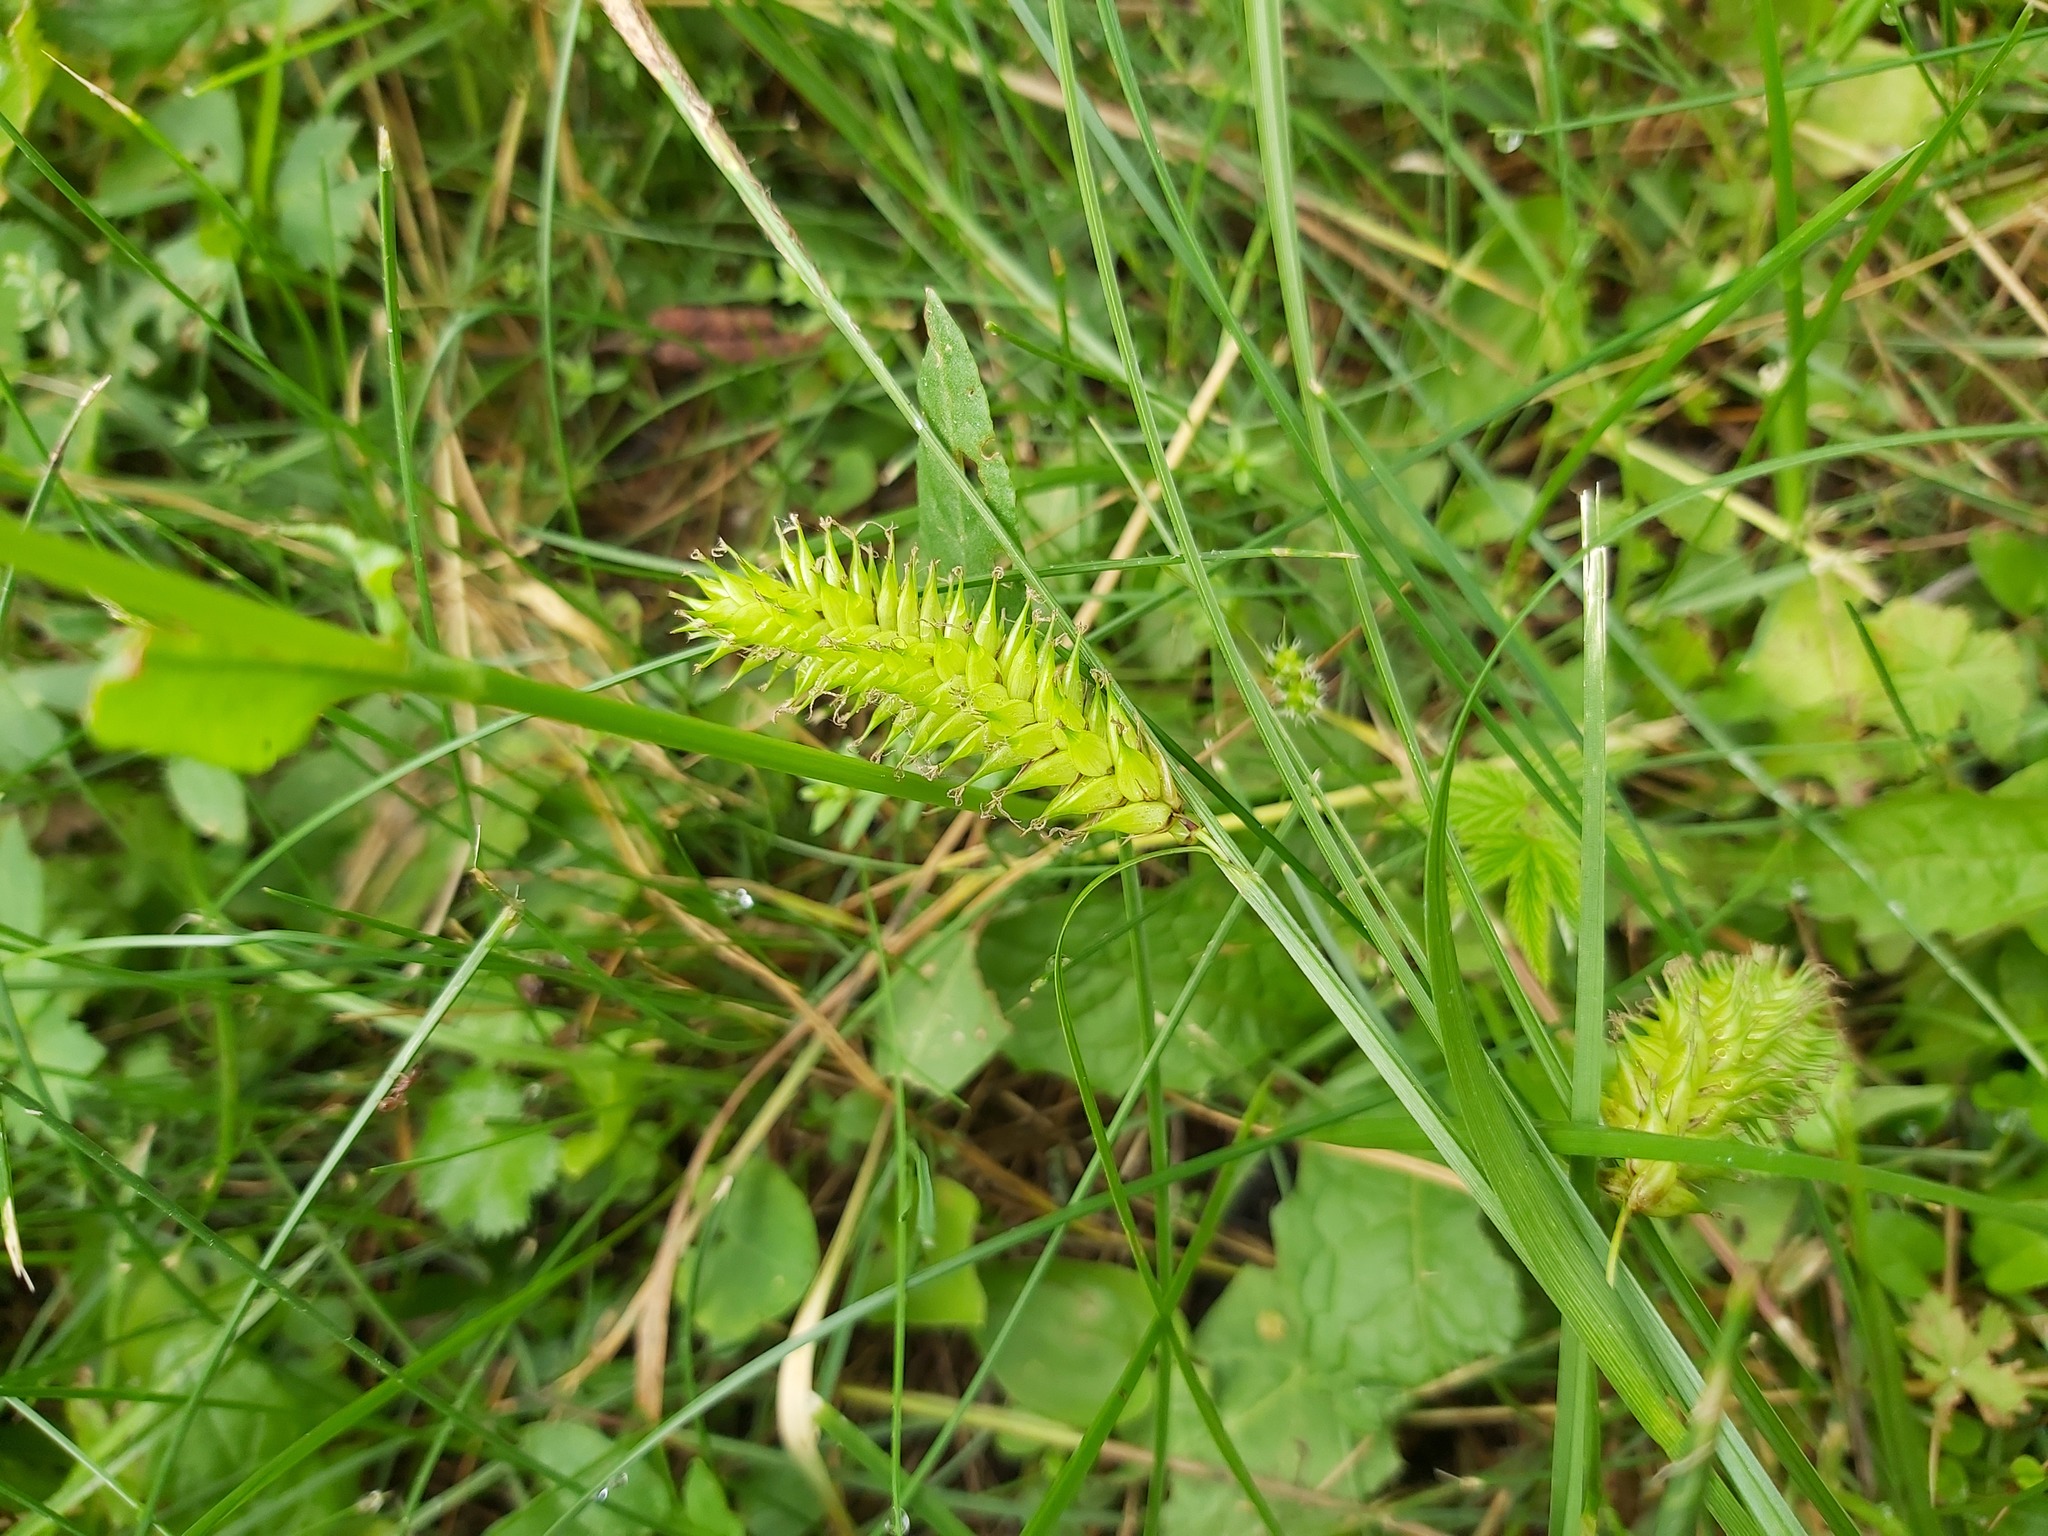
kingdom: Plantae
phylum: Tracheophyta
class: Liliopsida
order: Poales
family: Cyperaceae
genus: Carex
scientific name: Carex vesicaria
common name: Bladder-sedge
